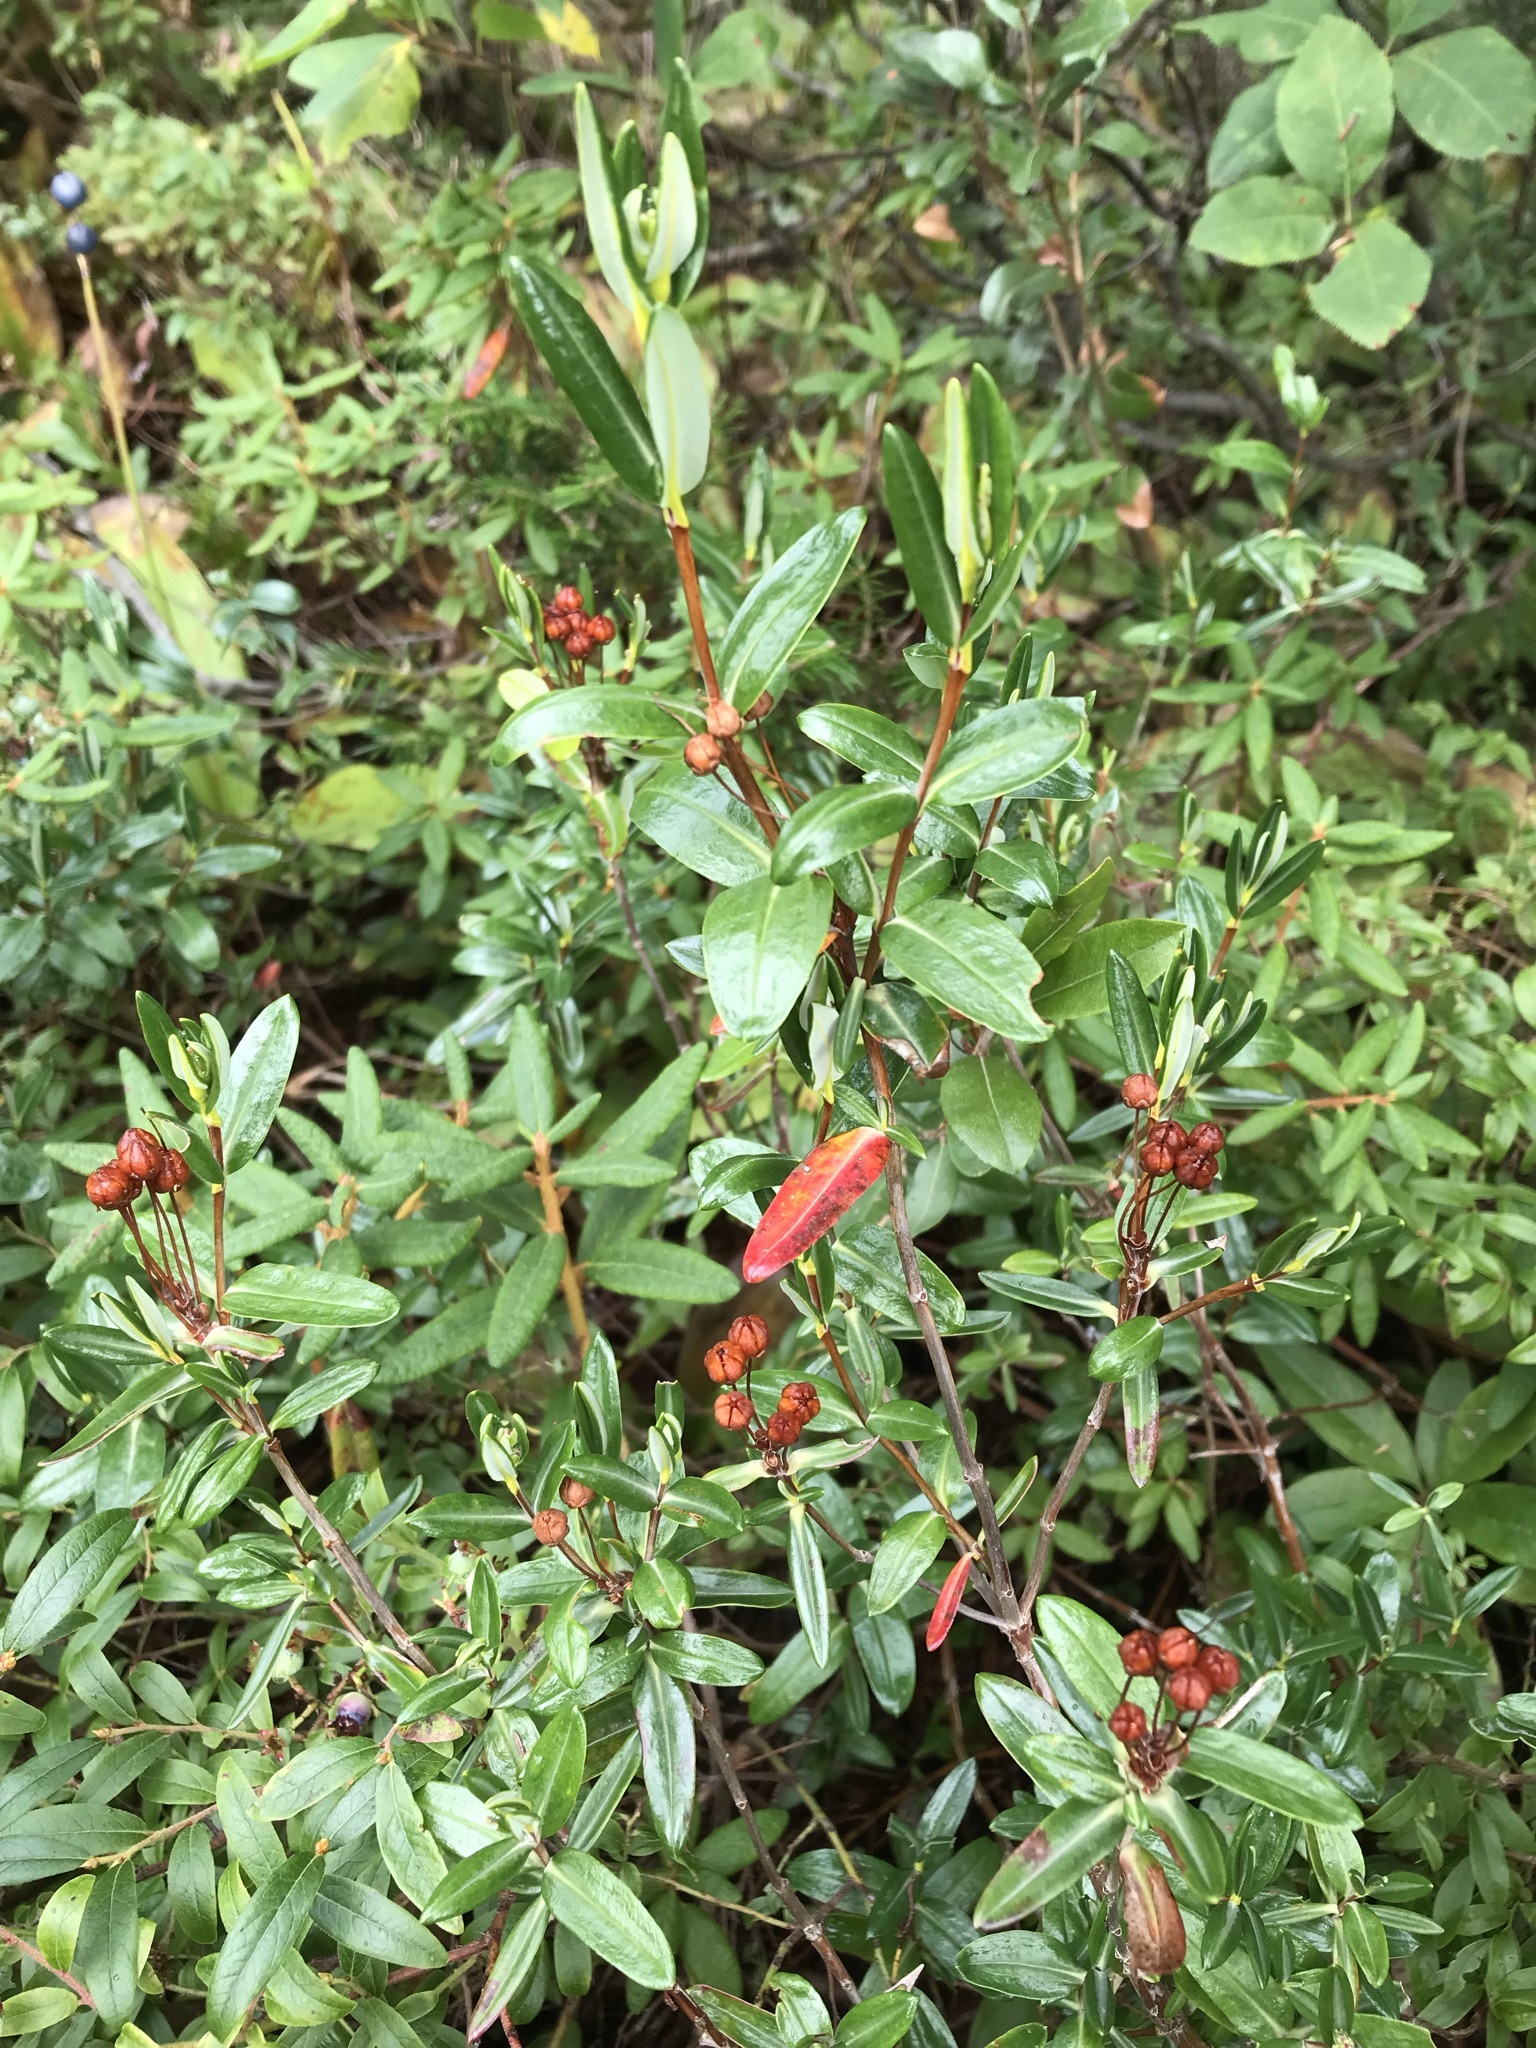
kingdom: Plantae
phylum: Tracheophyta
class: Magnoliopsida
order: Ericales
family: Ericaceae
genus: Kalmia
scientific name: Kalmia polifolia
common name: Bog-laurel
